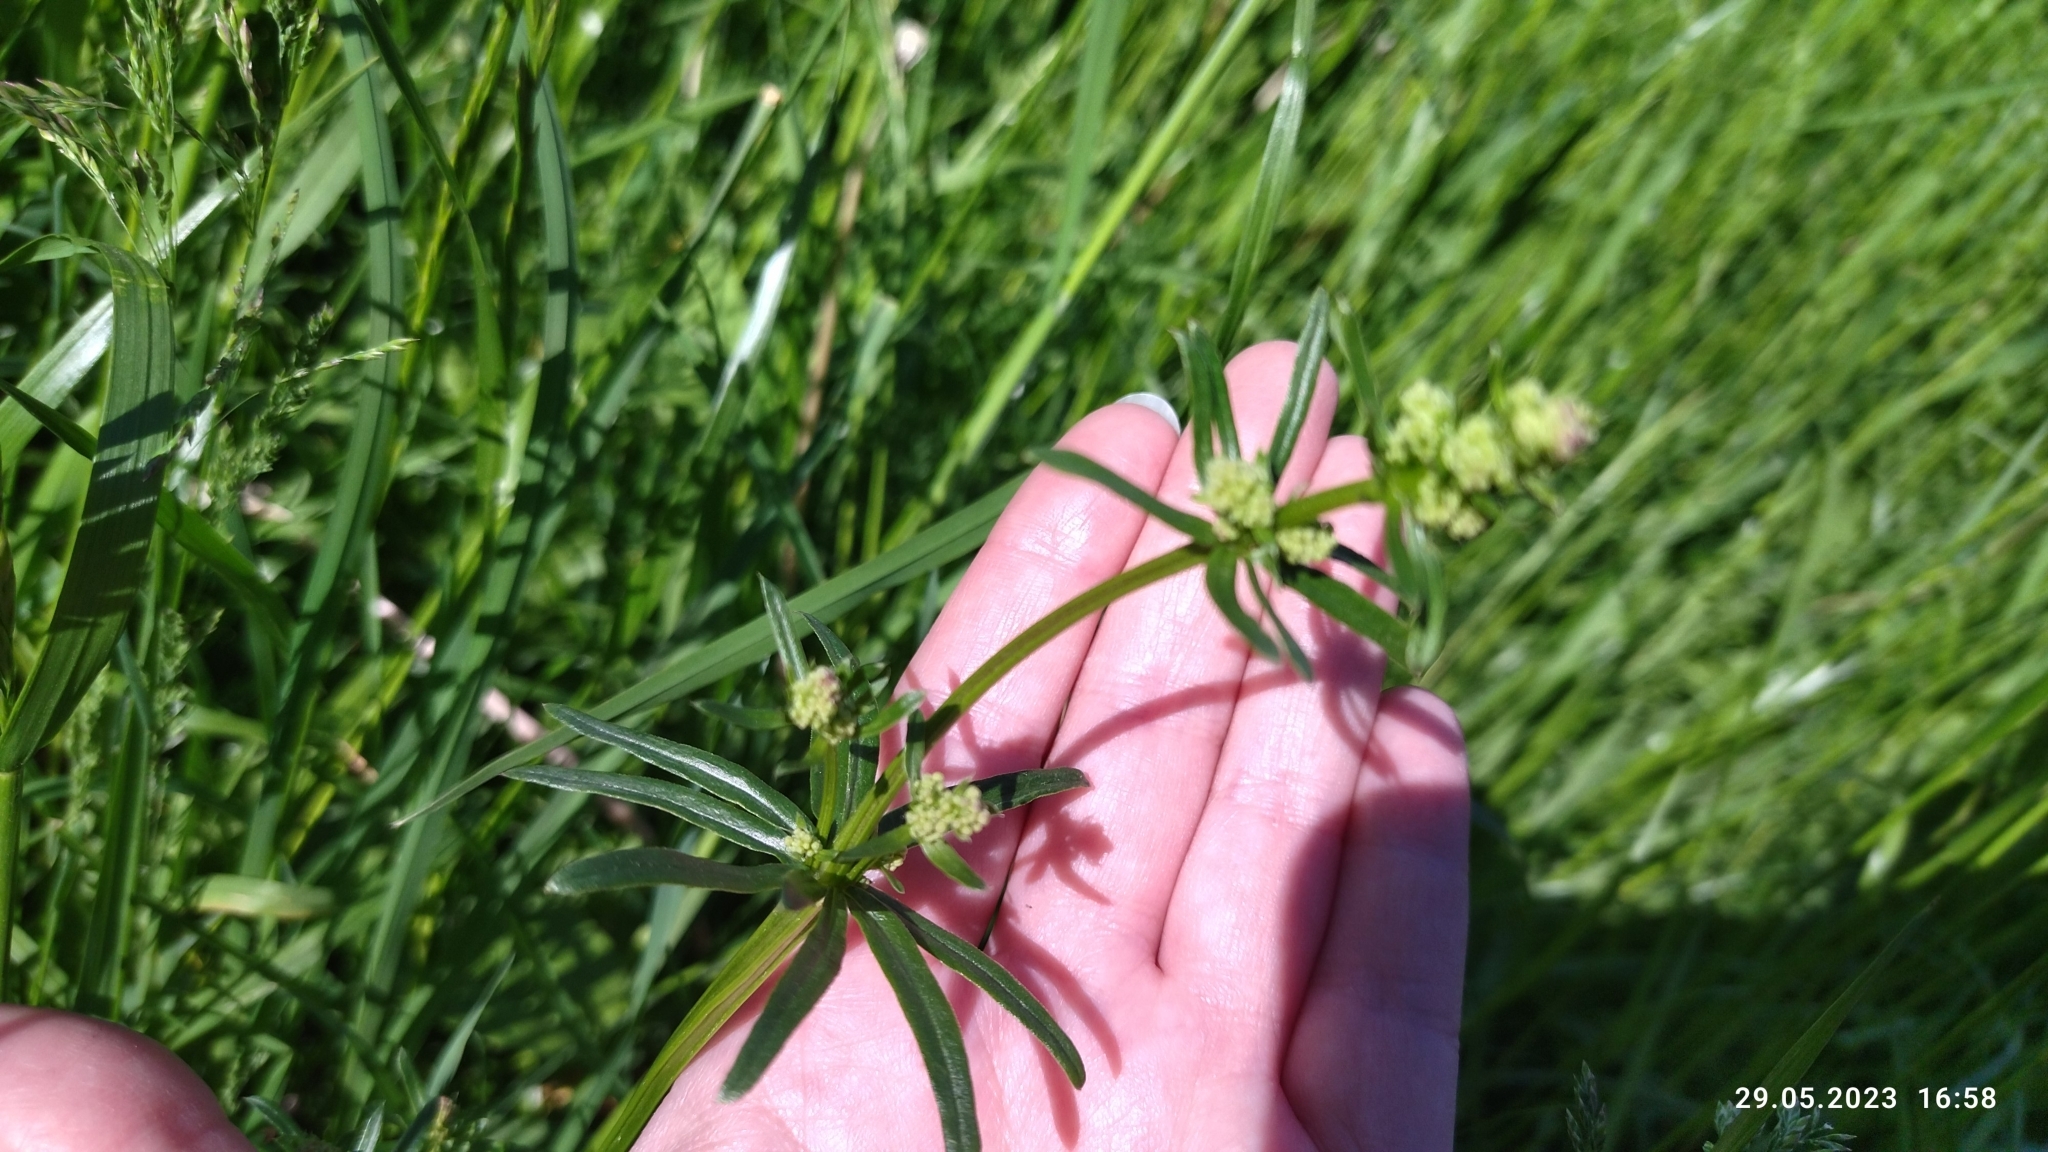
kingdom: Plantae
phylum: Tracheophyta
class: Magnoliopsida
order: Gentianales
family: Rubiaceae
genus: Galium
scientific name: Galium mollugo
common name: Hedge bedstraw
